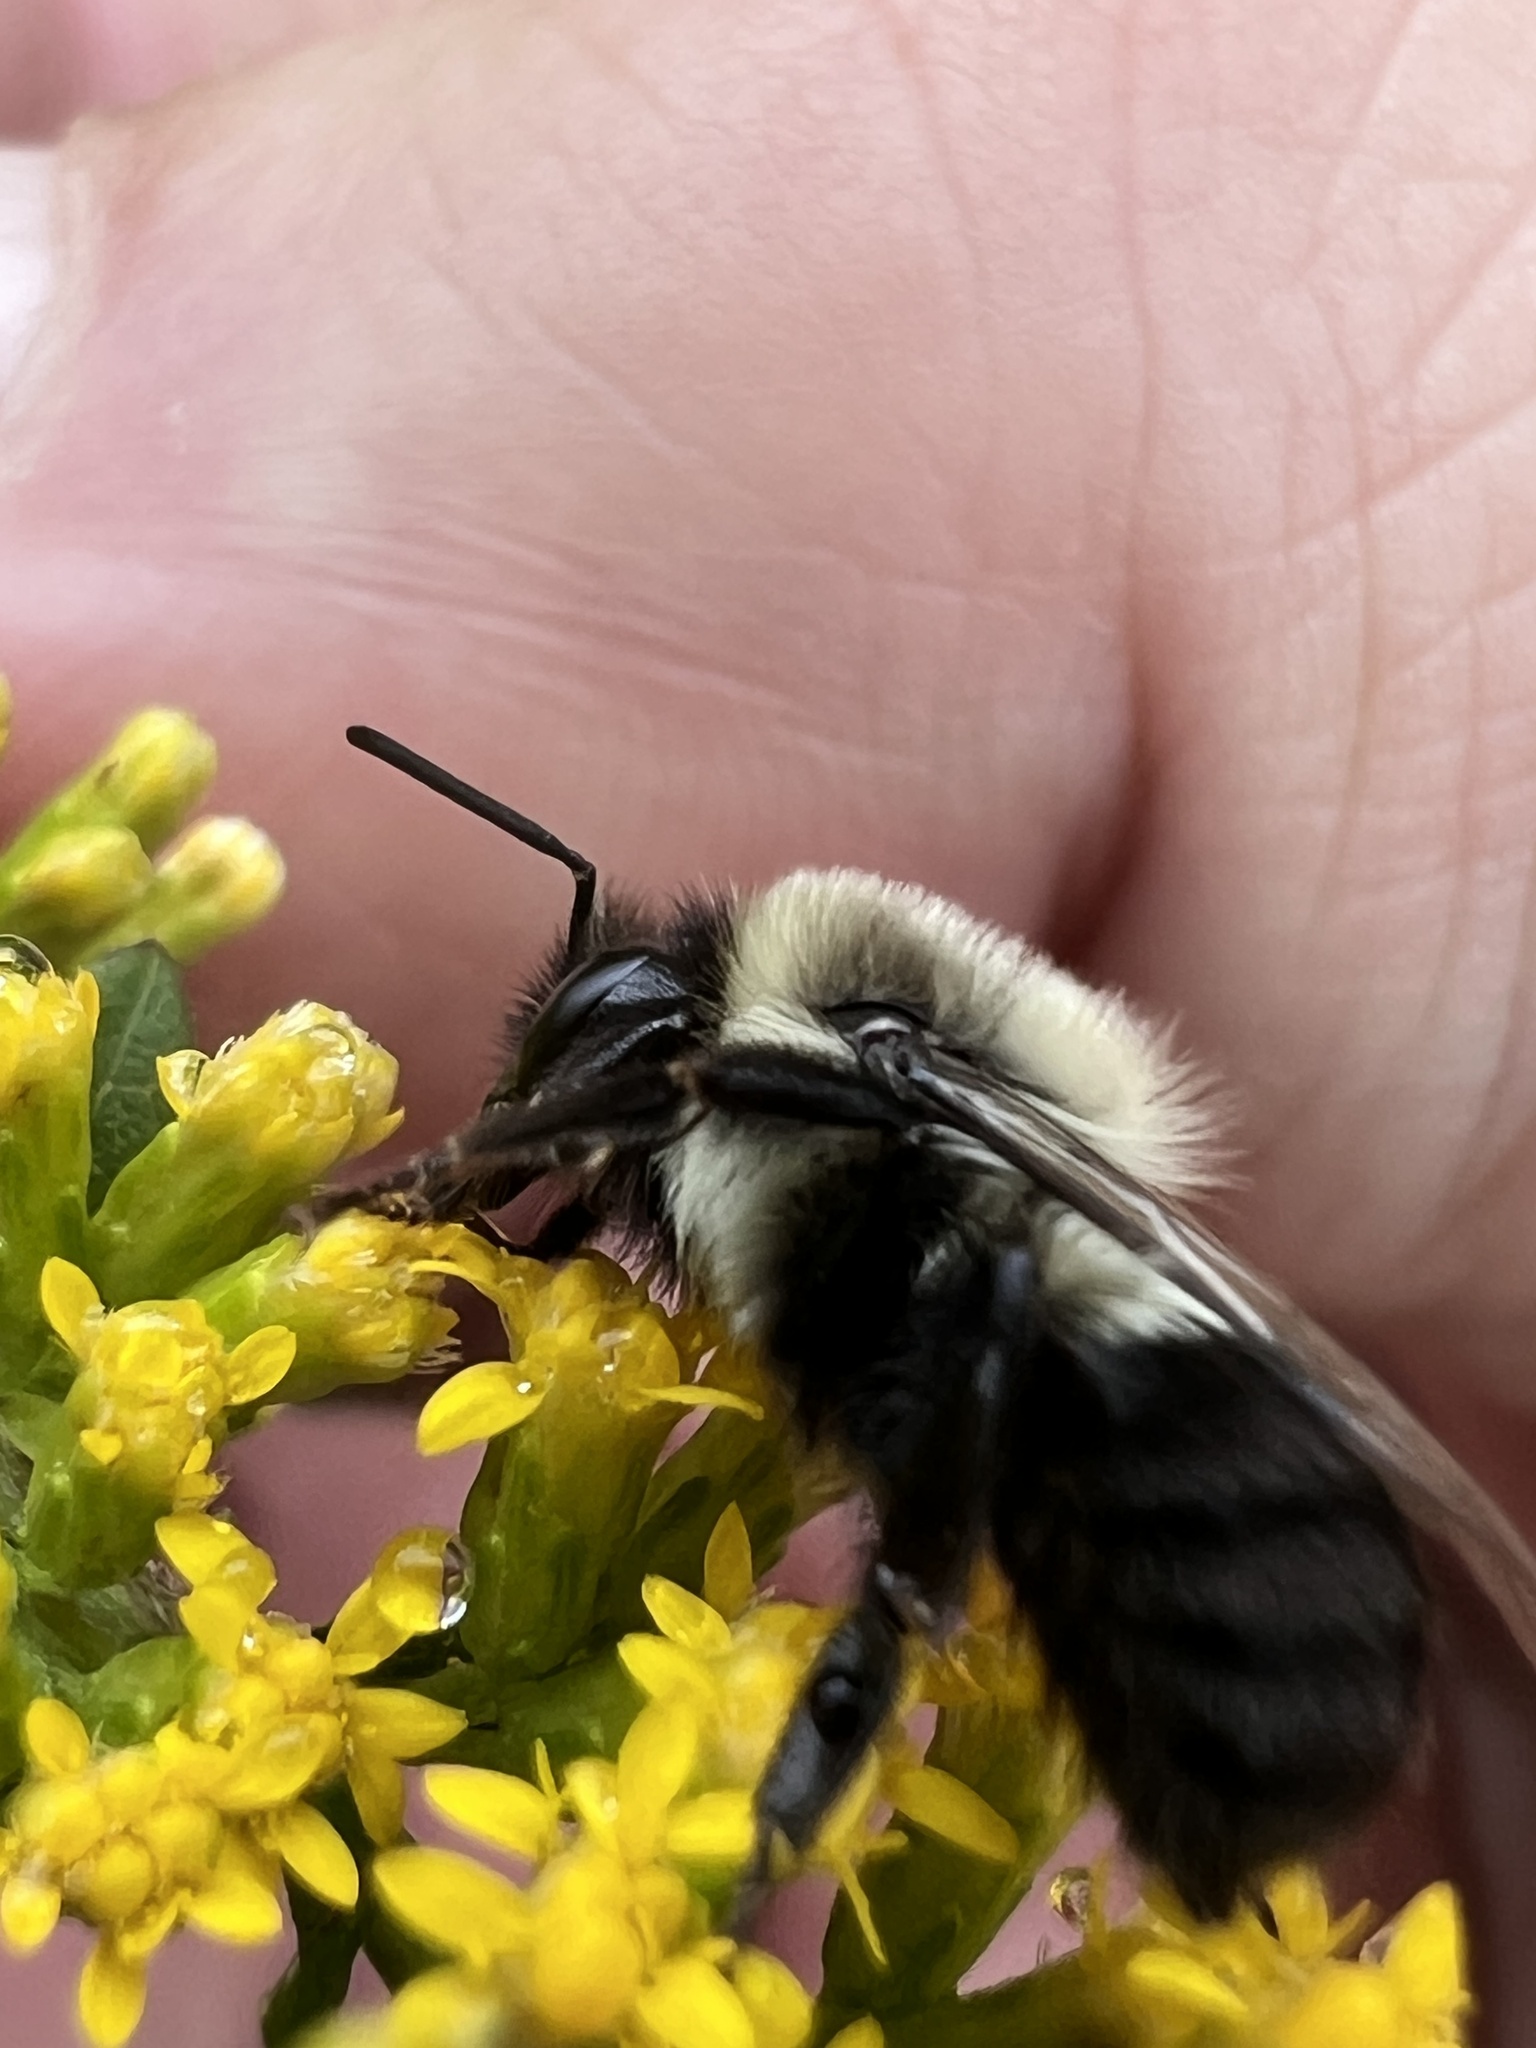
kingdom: Animalia
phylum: Arthropoda
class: Insecta
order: Hymenoptera
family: Apidae
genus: Bombus
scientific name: Bombus impatiens
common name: Common eastern bumble bee
